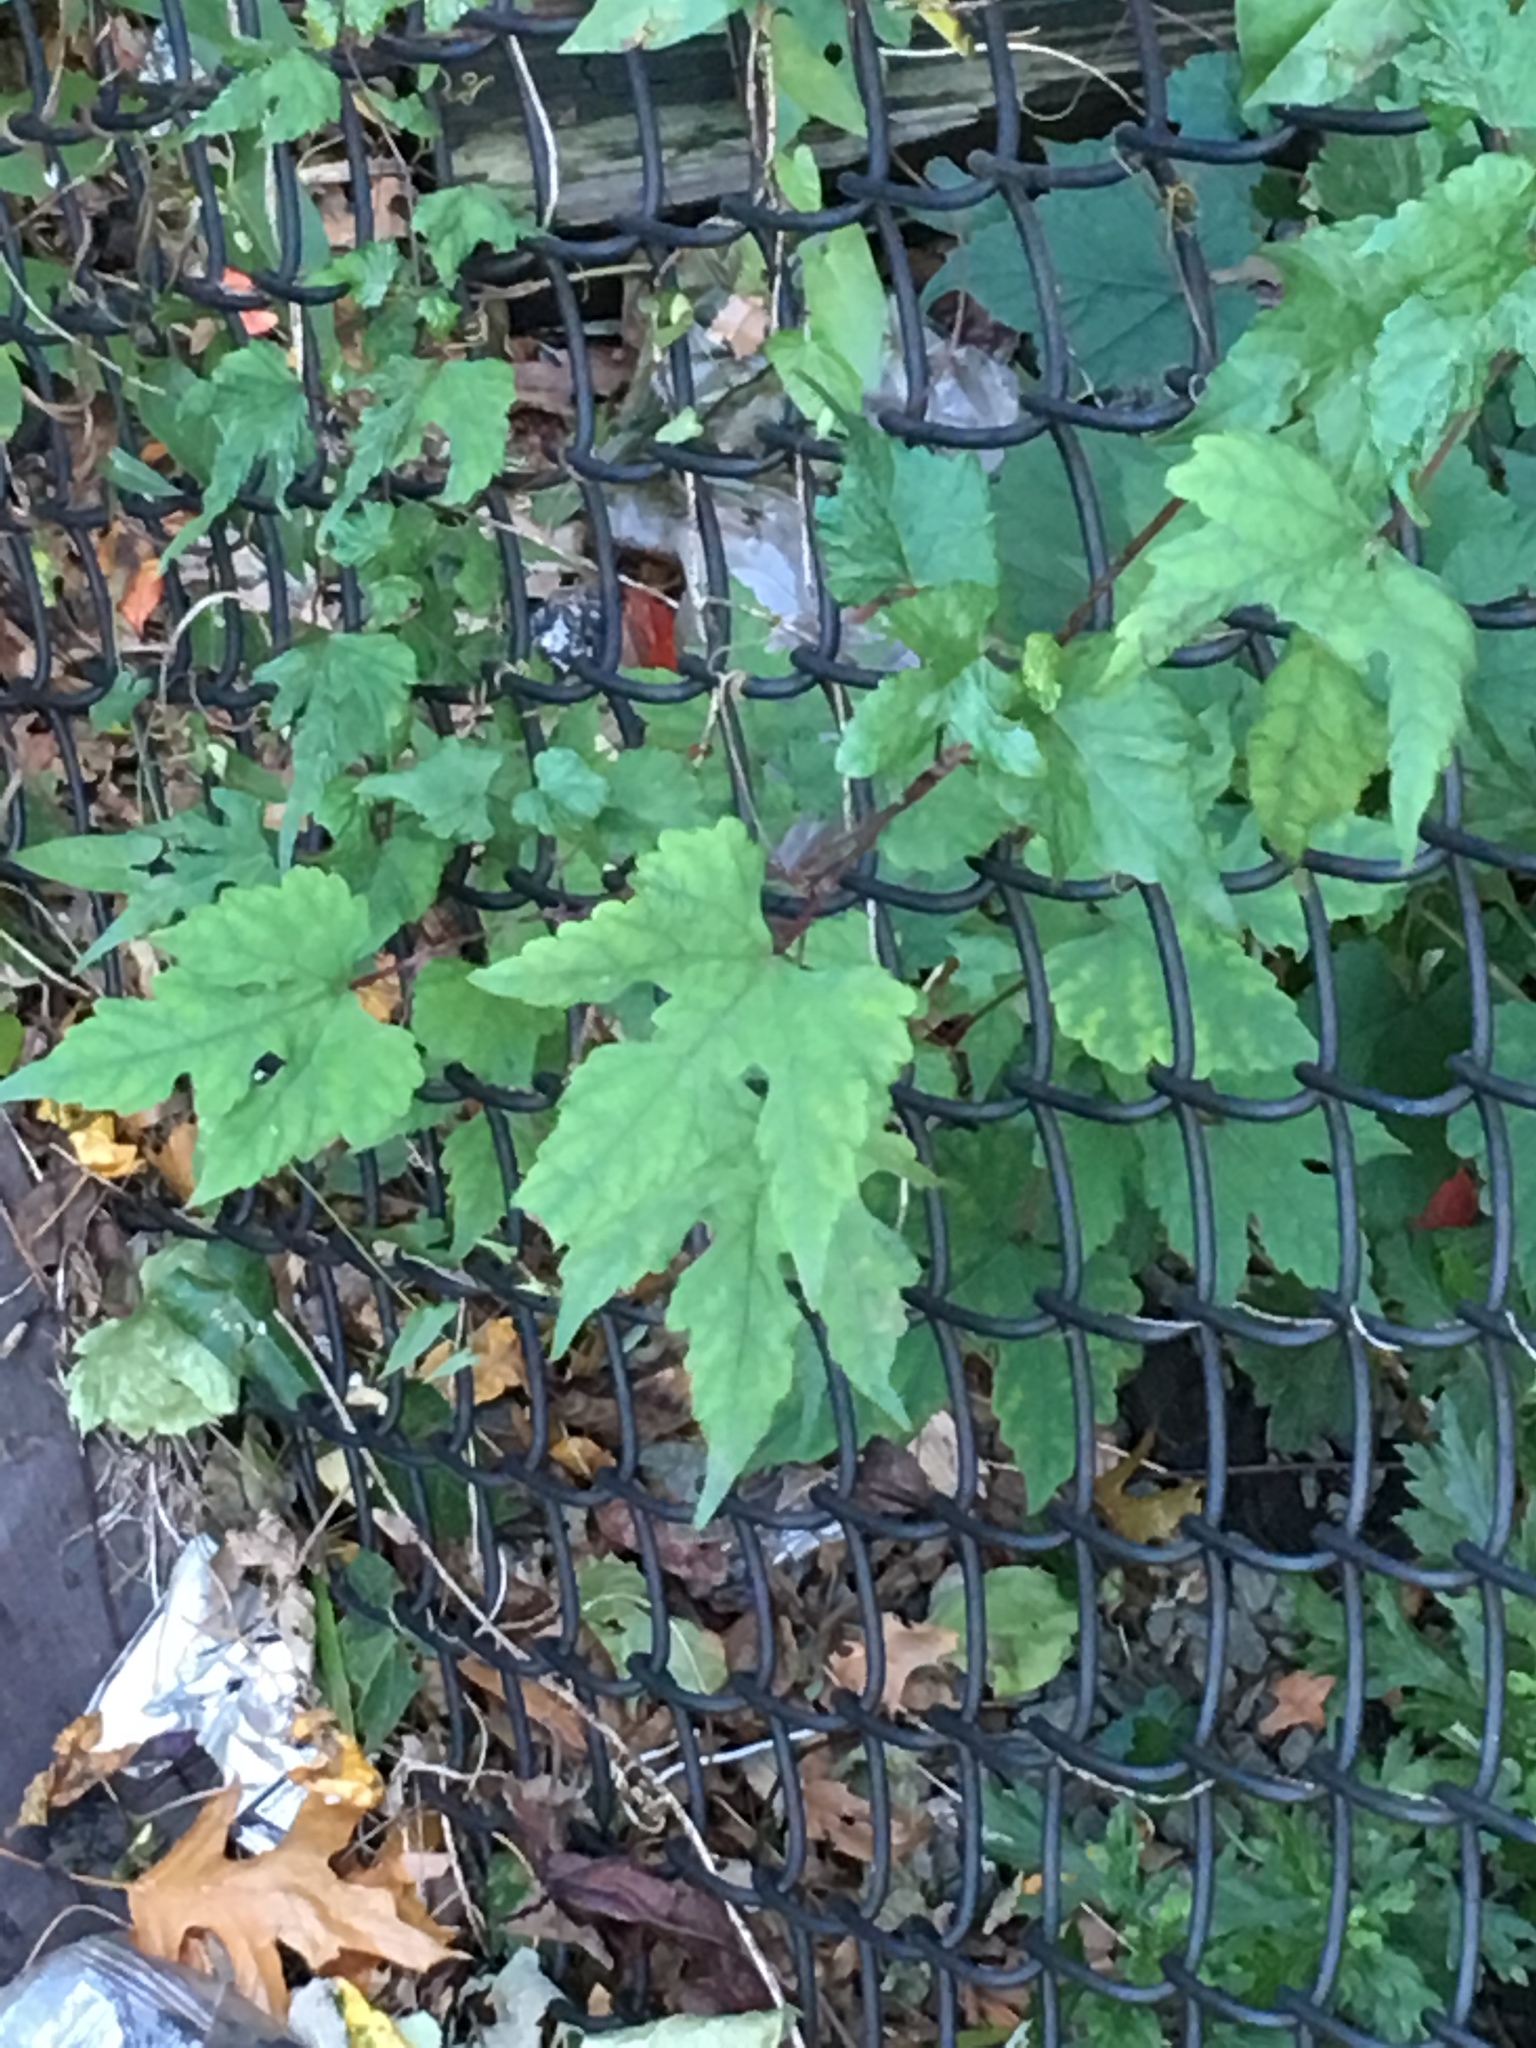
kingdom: Plantae
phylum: Tracheophyta
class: Magnoliopsida
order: Vitales
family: Vitaceae
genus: Ampelopsis
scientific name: Ampelopsis glandulosa
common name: Amur peppervine
